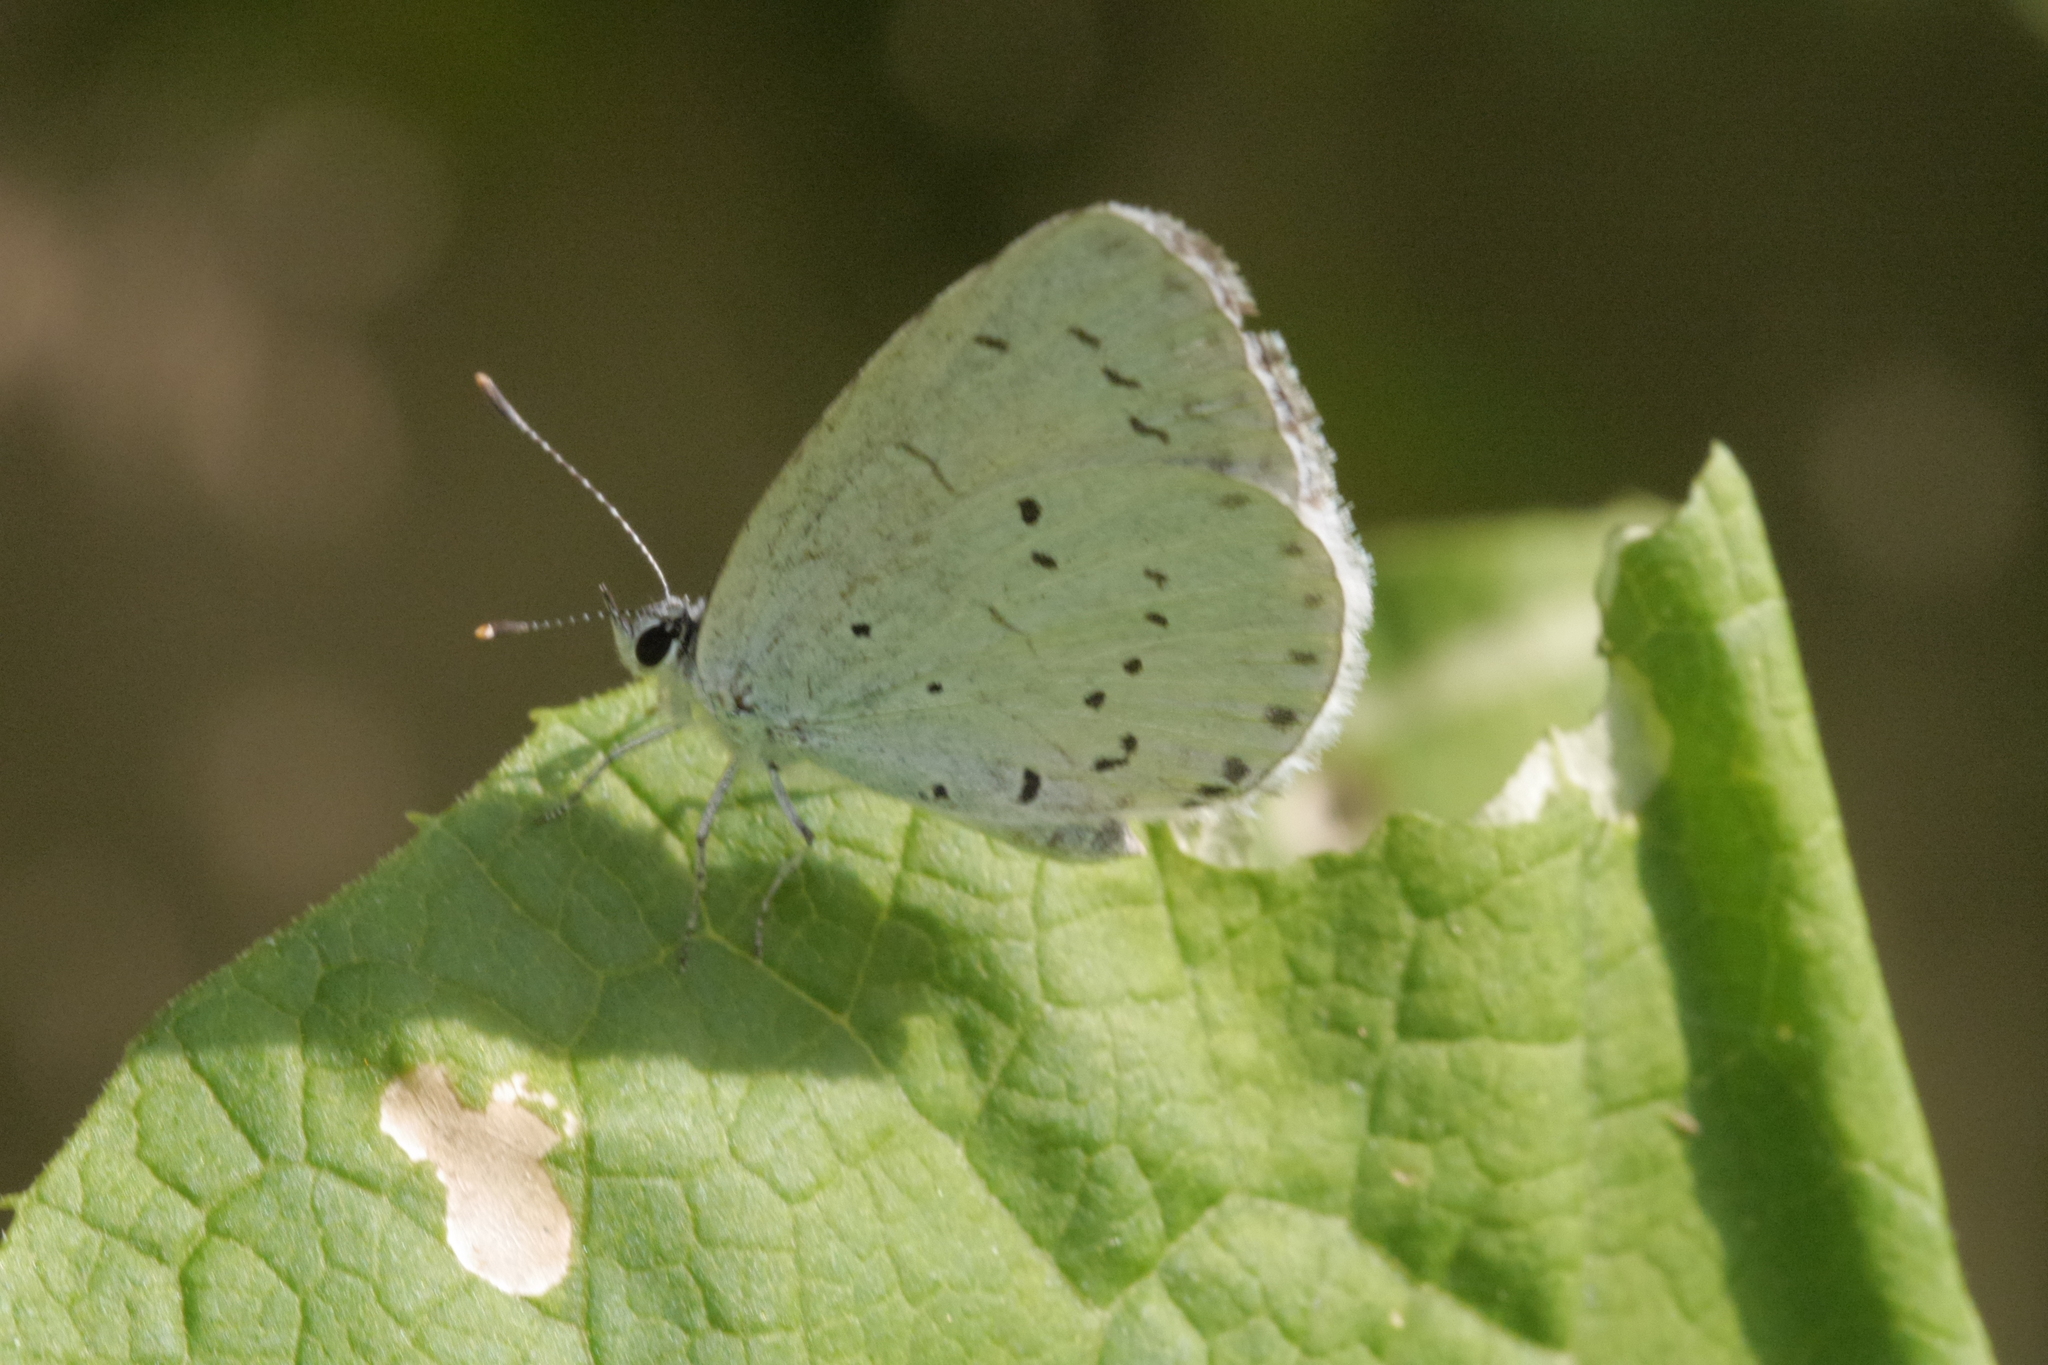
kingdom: Animalia
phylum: Arthropoda
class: Insecta
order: Lepidoptera
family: Lycaenidae
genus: Celastrina
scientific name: Celastrina argiolus
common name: Holly blue
